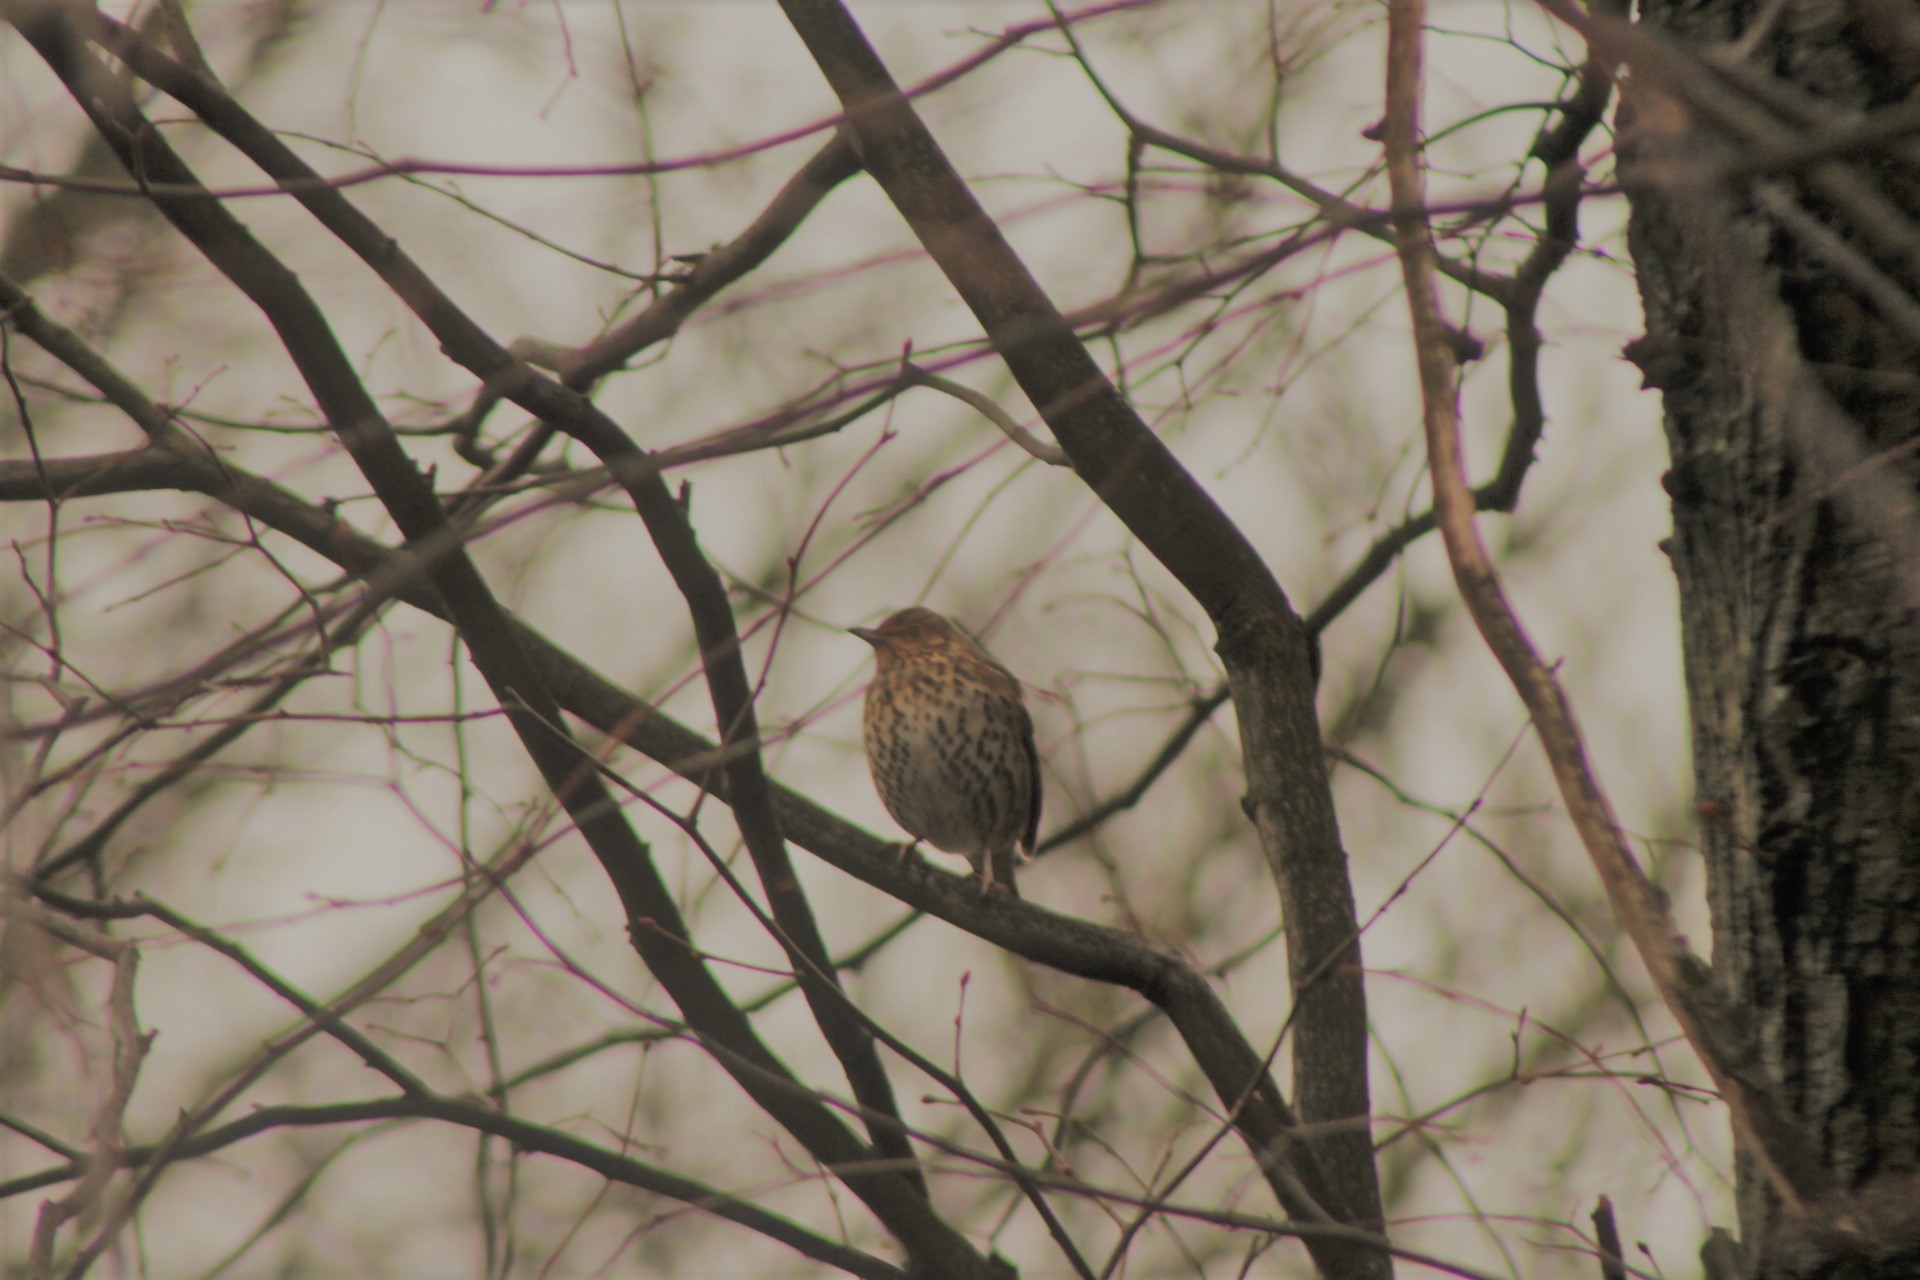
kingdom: Animalia
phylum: Chordata
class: Aves
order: Passeriformes
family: Turdidae
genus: Turdus
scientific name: Turdus philomelos
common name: Song thrush
